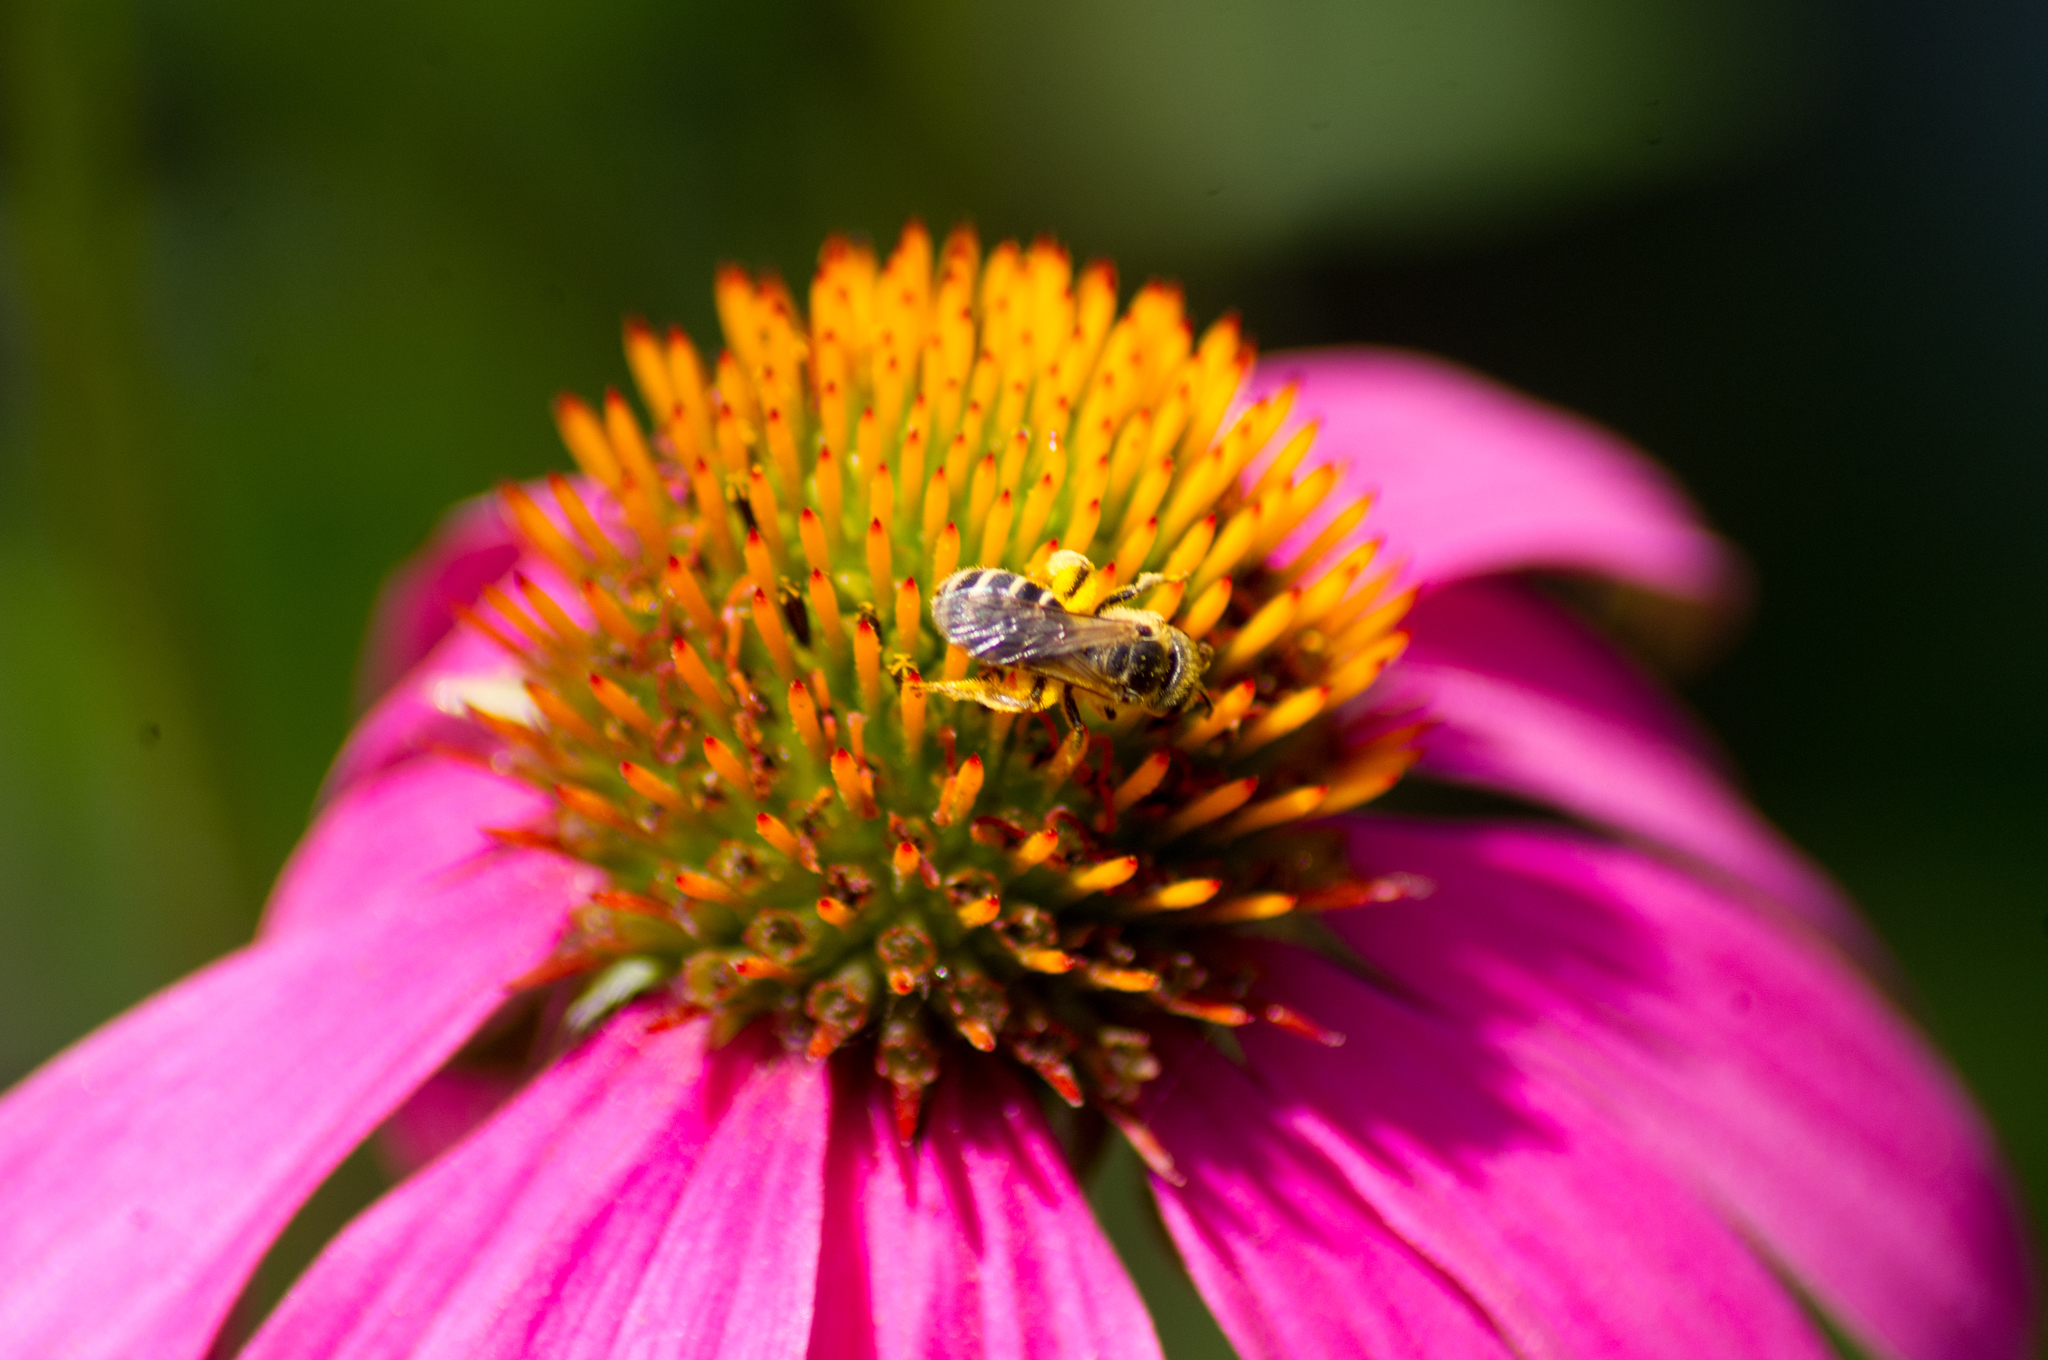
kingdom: Animalia
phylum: Arthropoda
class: Insecta
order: Hymenoptera
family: Halictidae
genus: Halictus
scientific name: Halictus ligatus
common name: Ligated furrow bee
